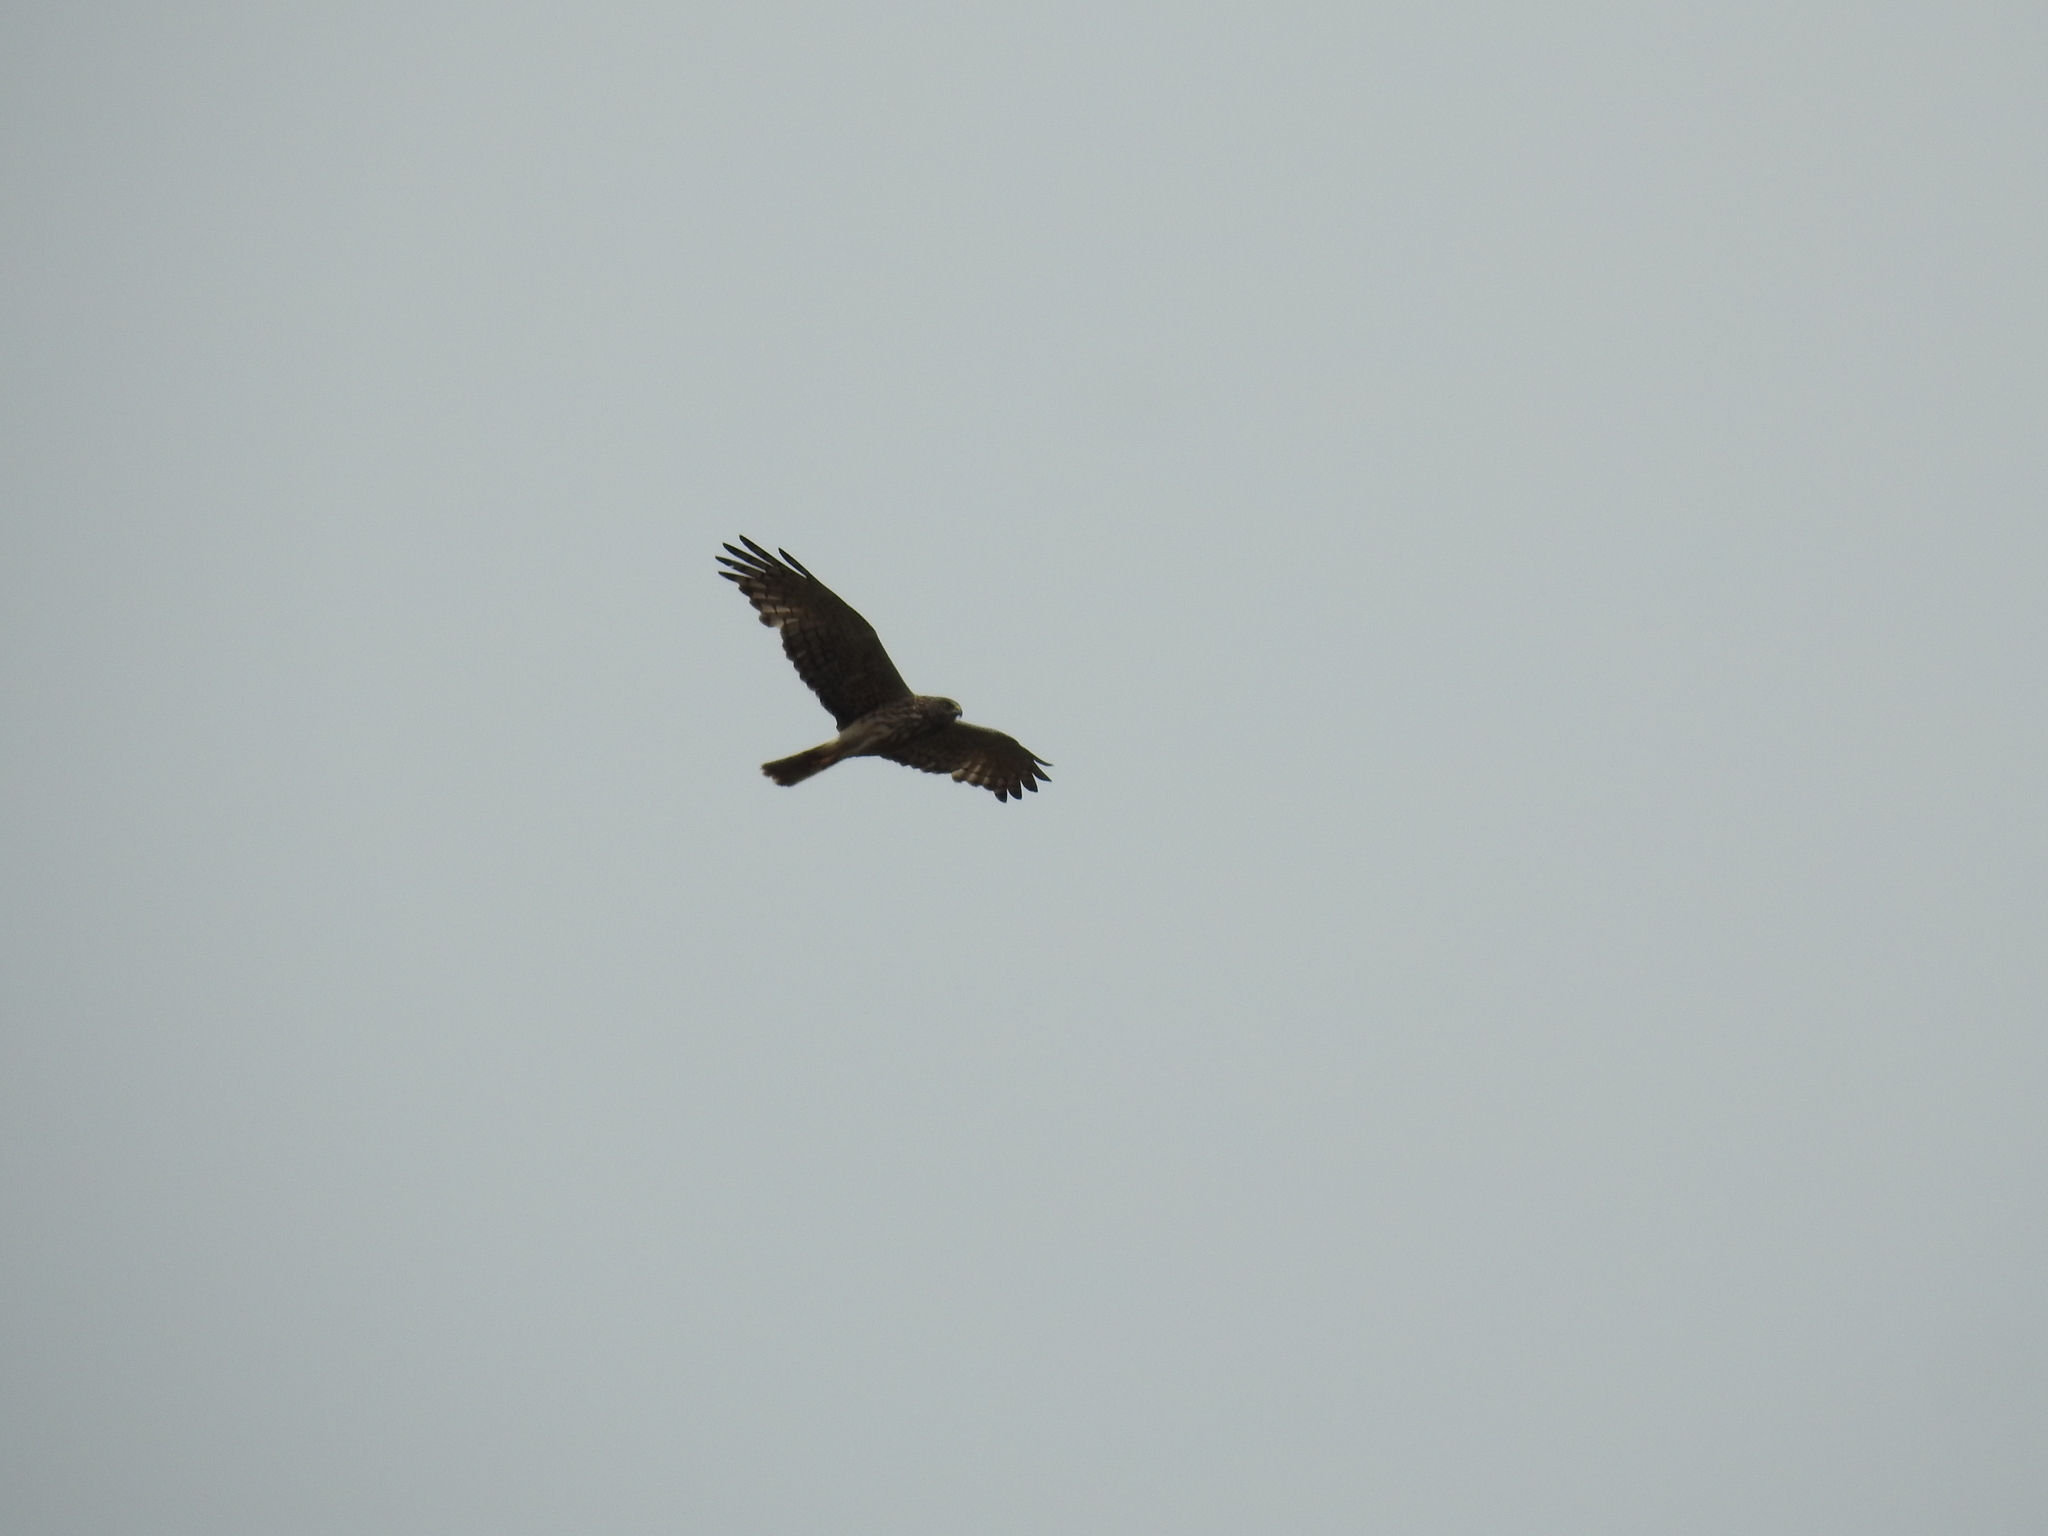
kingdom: Animalia
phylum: Chordata
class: Aves
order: Accipitriformes
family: Accipitridae
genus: Circus
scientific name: Circus approximans
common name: Swamp harrier
